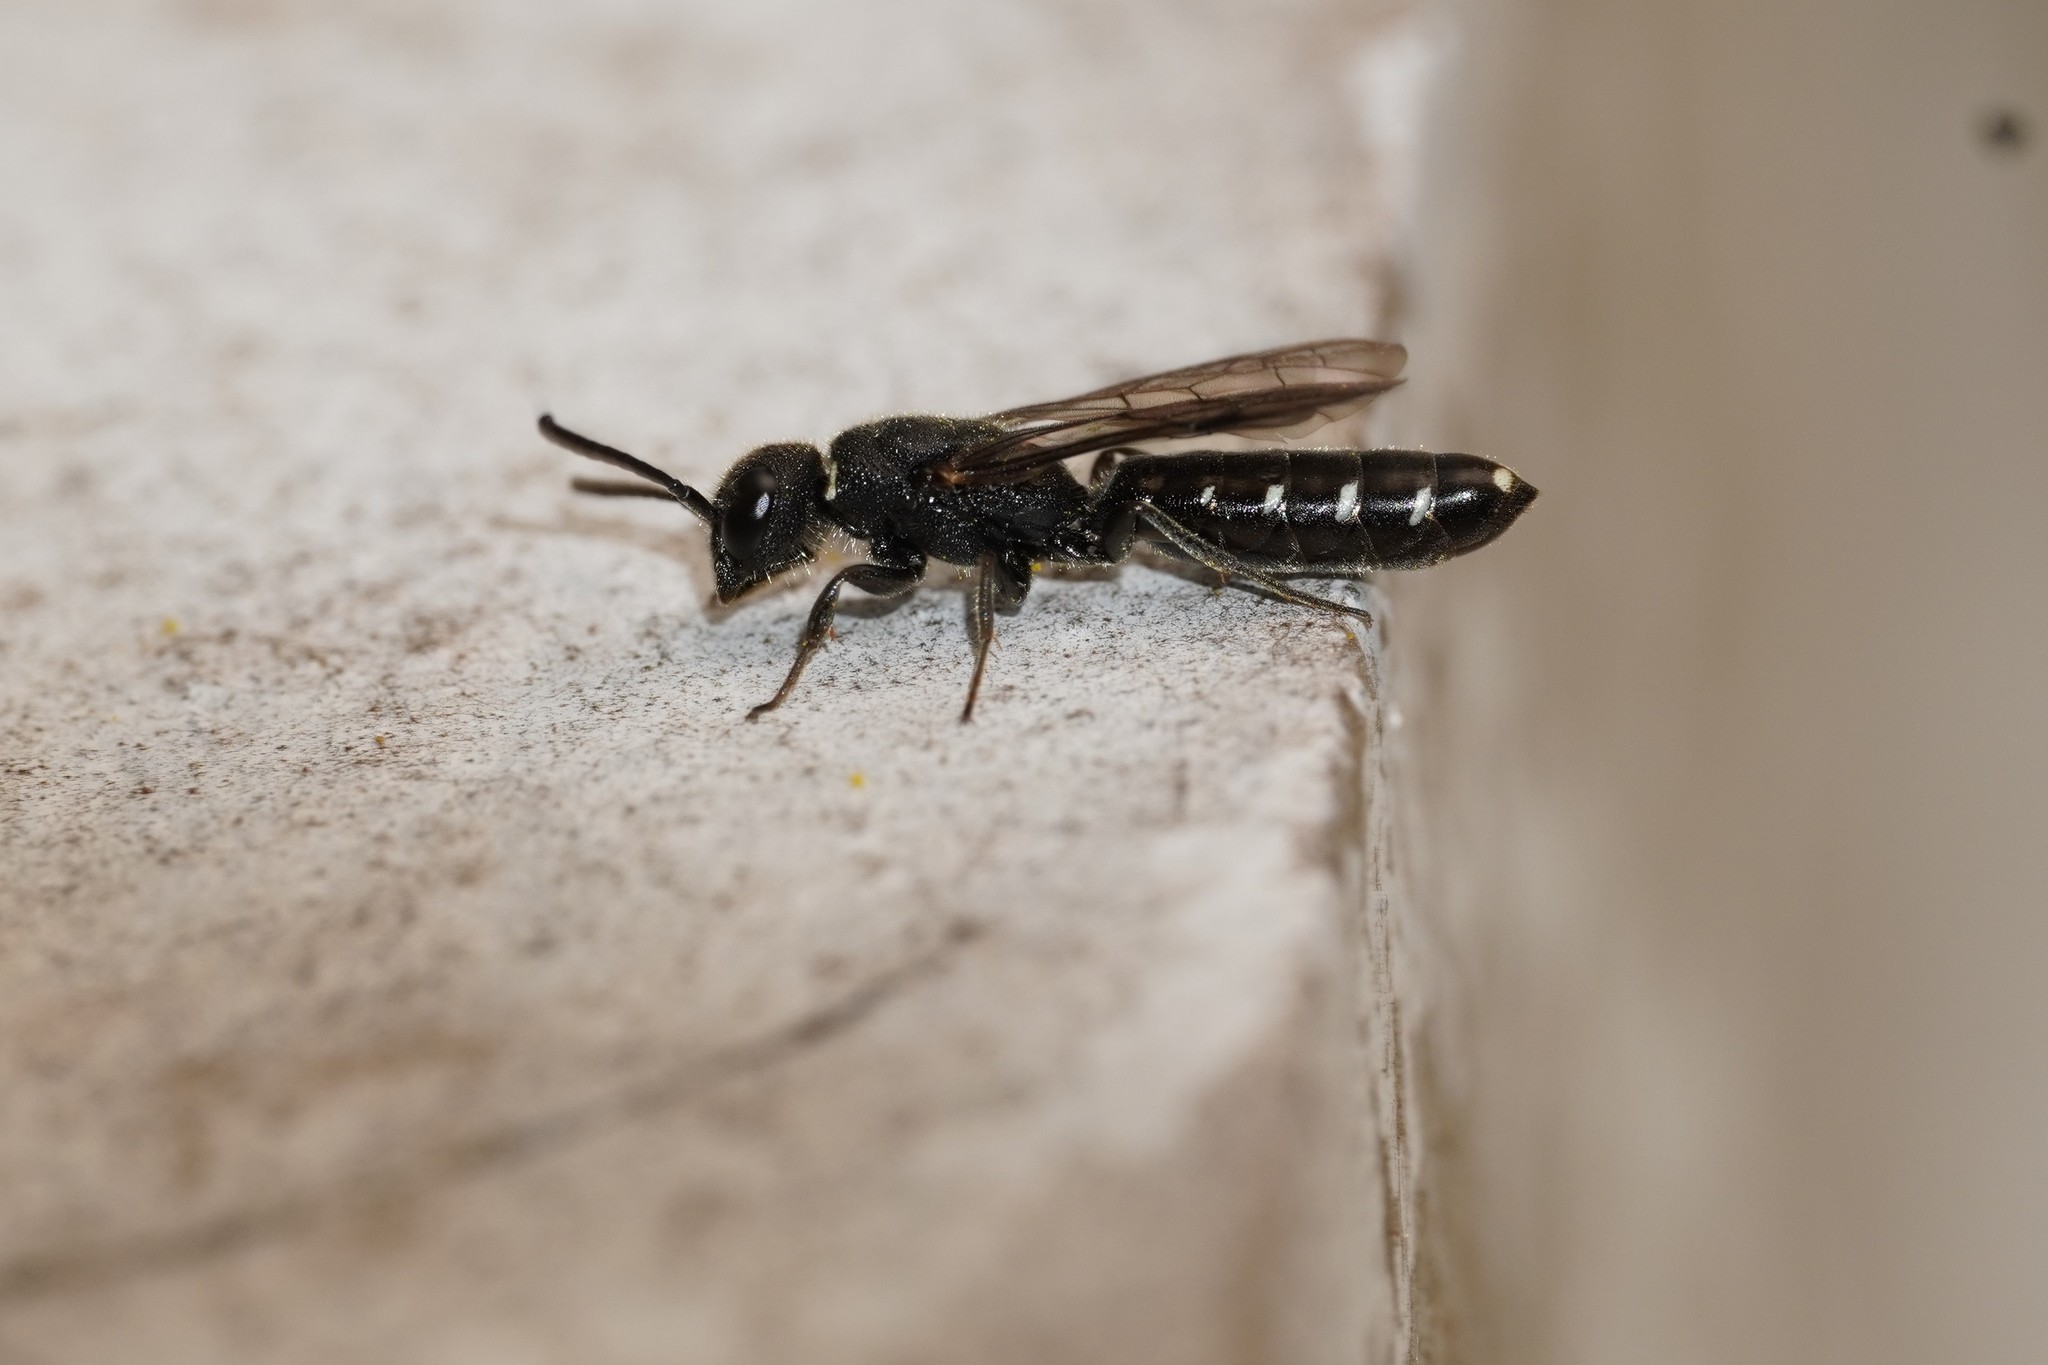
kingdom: Animalia
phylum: Arthropoda
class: Insecta
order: Hymenoptera
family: Sapygidae
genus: Sapygina
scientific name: Sapygina decemguttata
